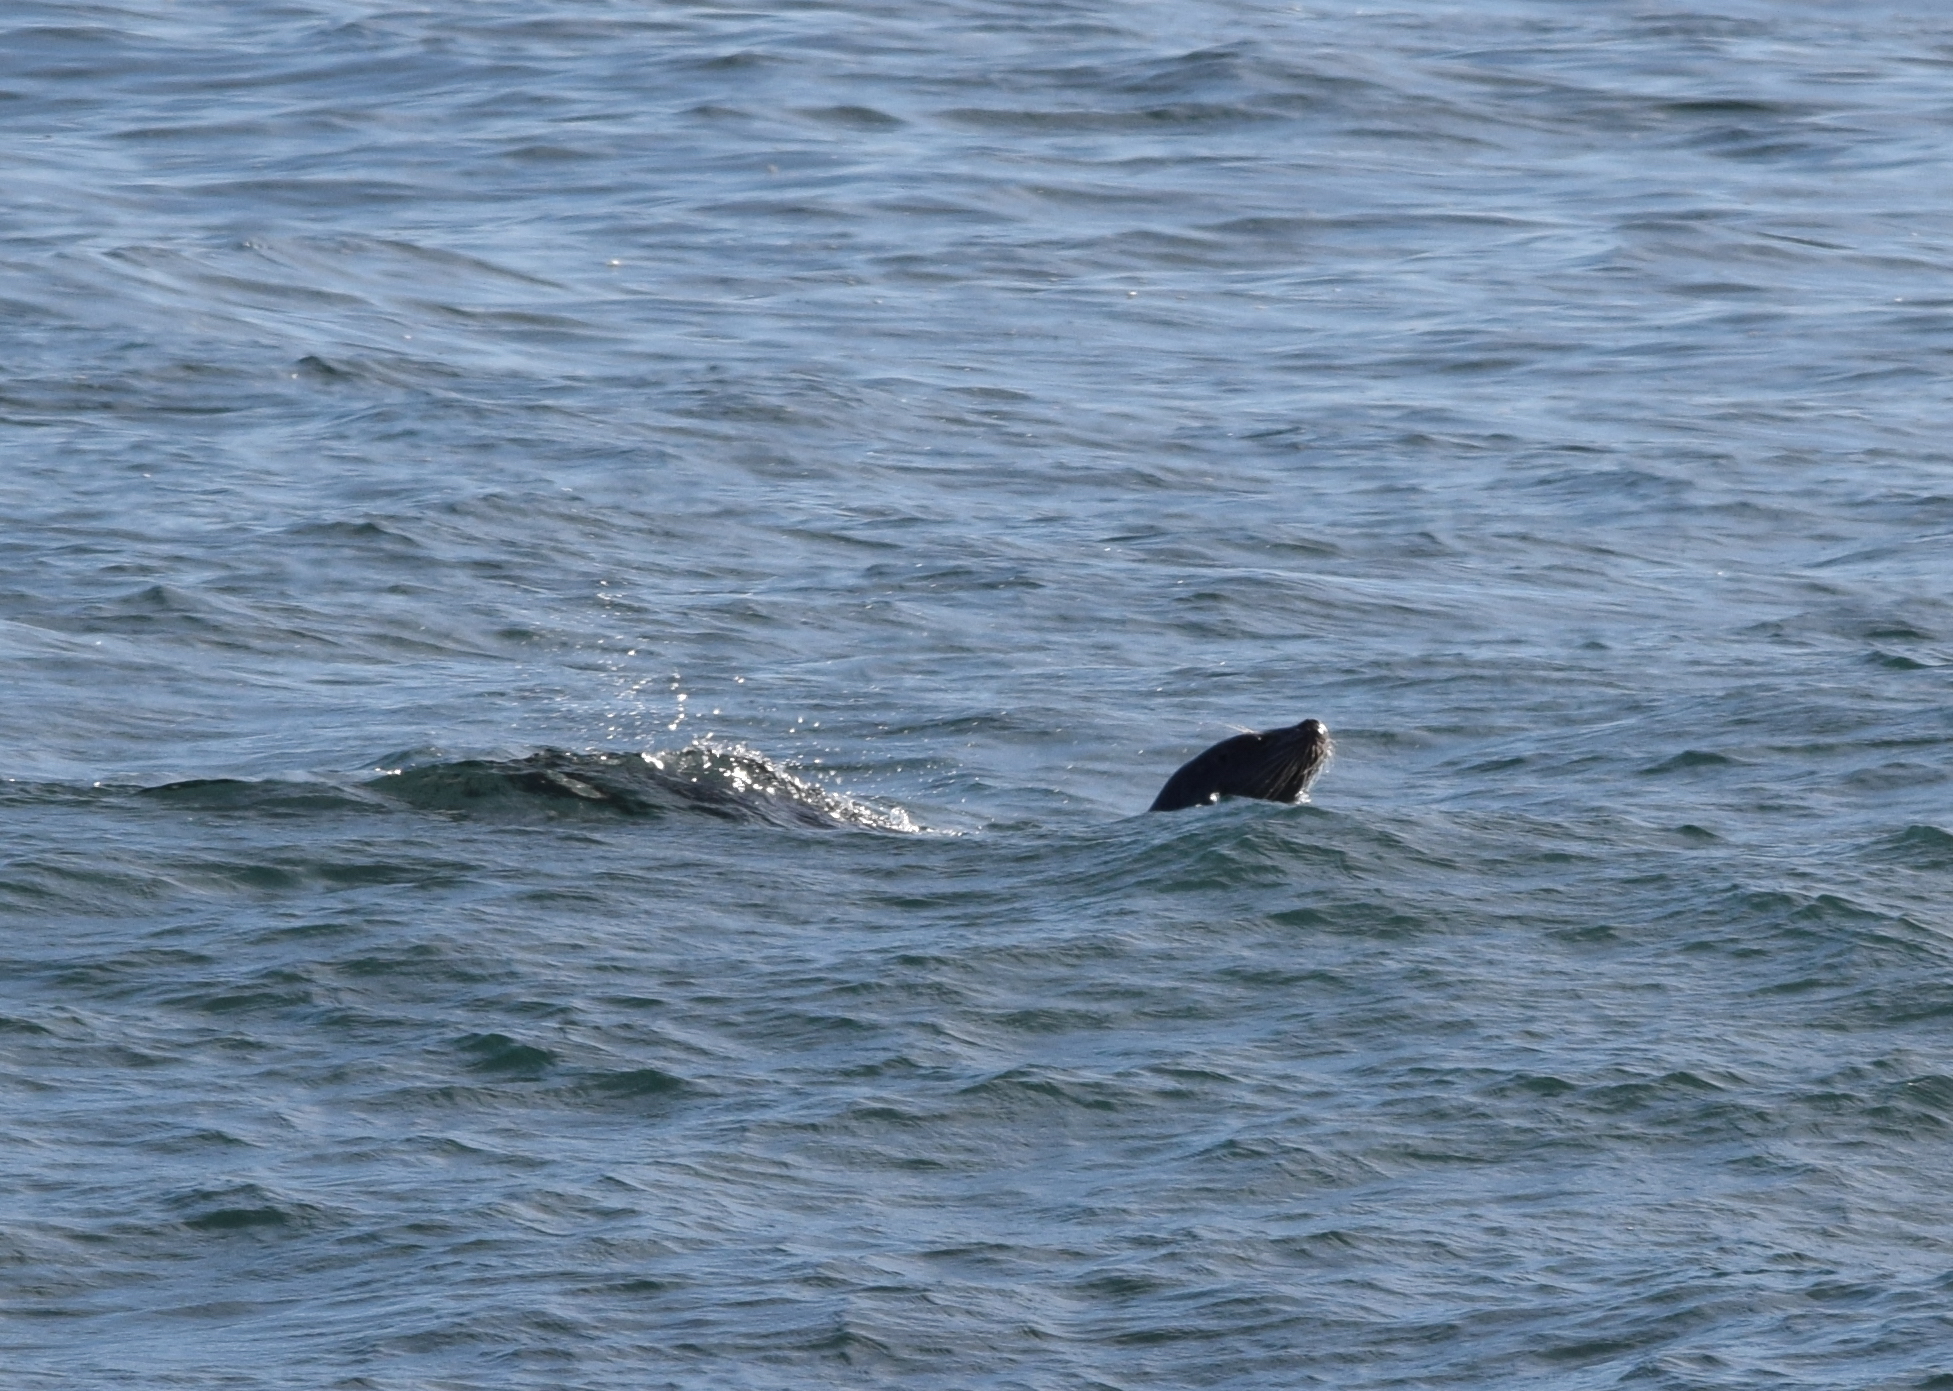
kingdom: Animalia
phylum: Chordata
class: Mammalia
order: Carnivora
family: Otariidae
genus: Zalophus
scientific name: Zalophus californianus
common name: California sea lion
